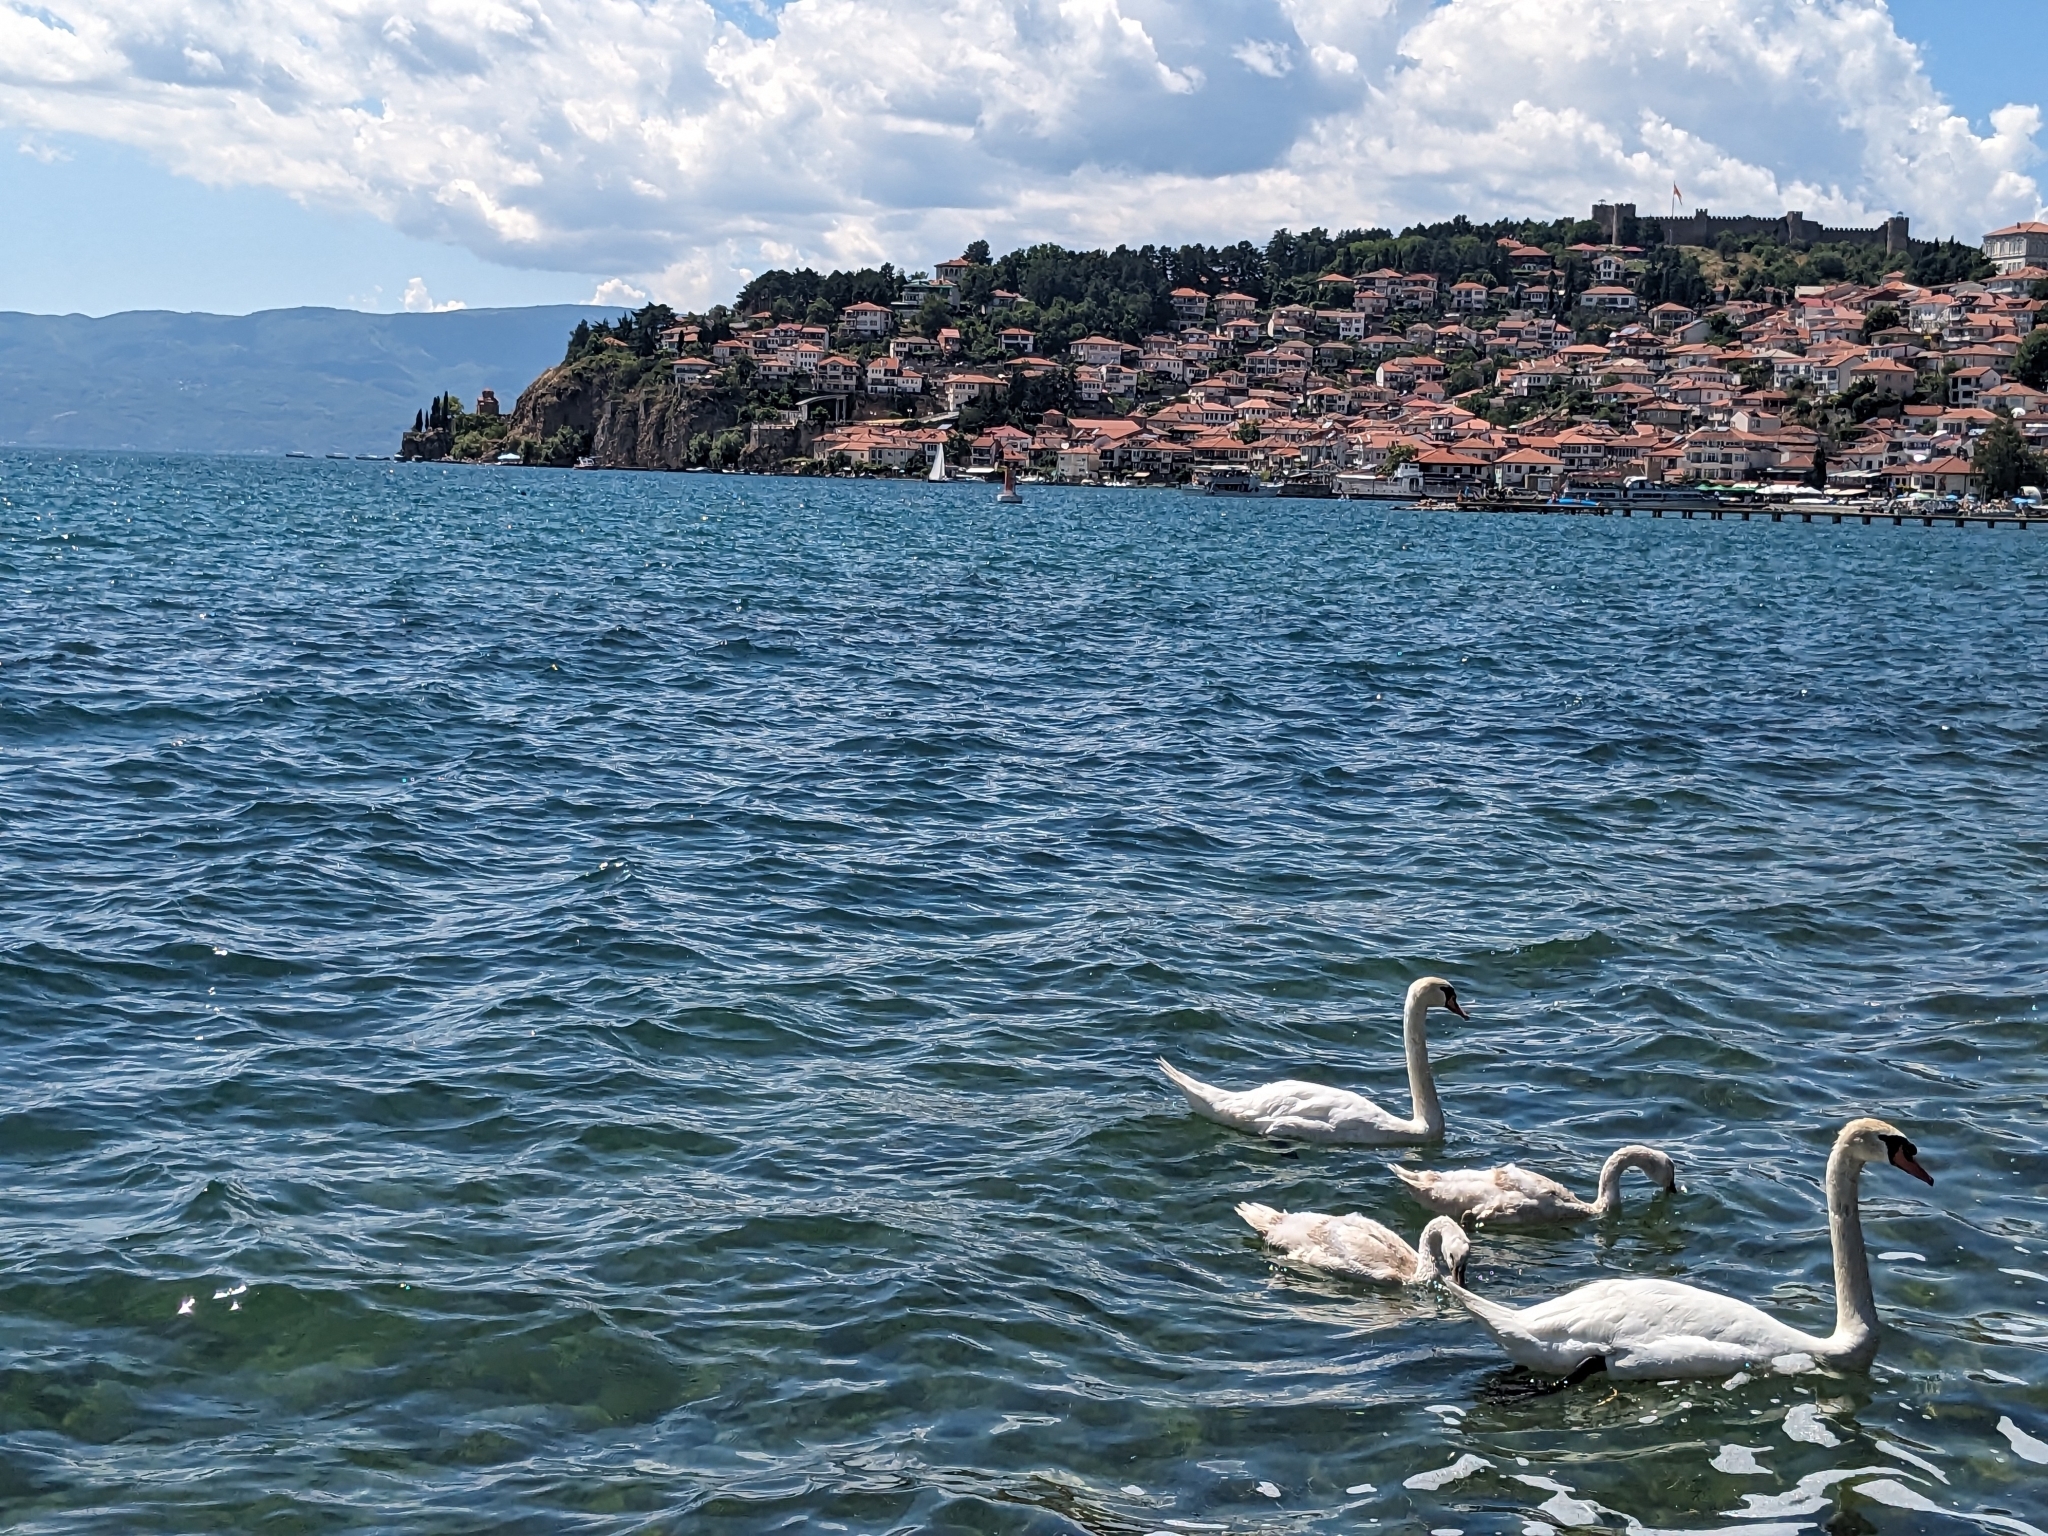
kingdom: Animalia
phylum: Chordata
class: Aves
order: Anseriformes
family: Anatidae
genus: Cygnus
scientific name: Cygnus olor
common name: Mute swan
